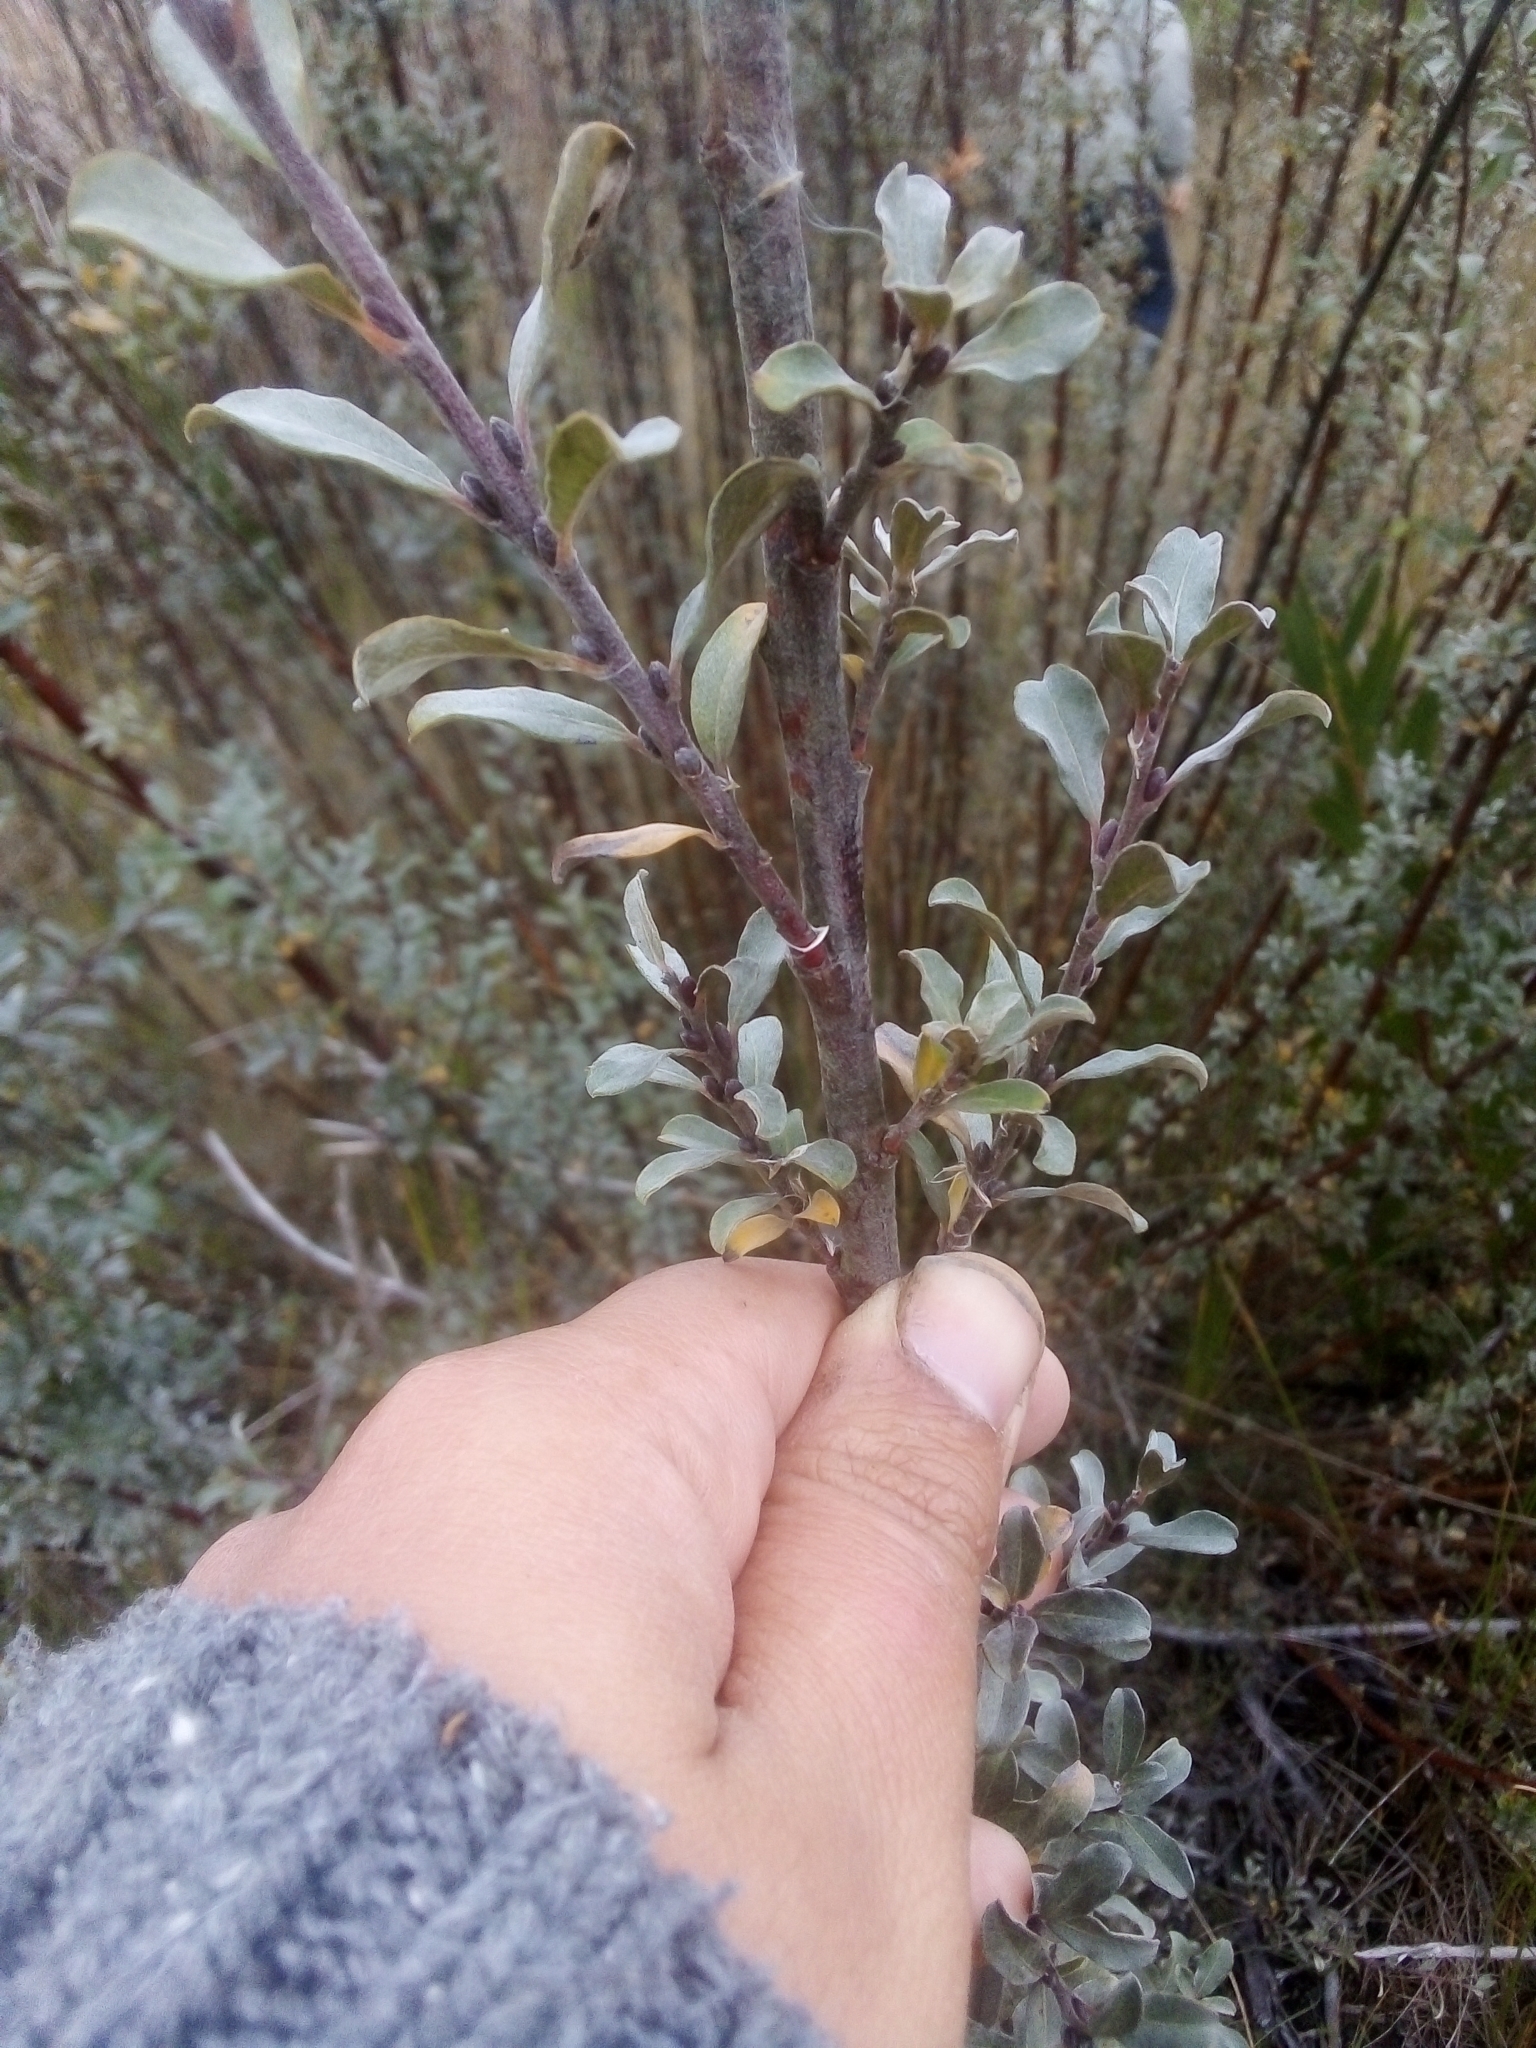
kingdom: Plantae
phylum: Tracheophyta
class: Magnoliopsida
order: Malpighiales
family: Salicaceae
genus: Salix
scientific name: Salix repens
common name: Creeping willow
